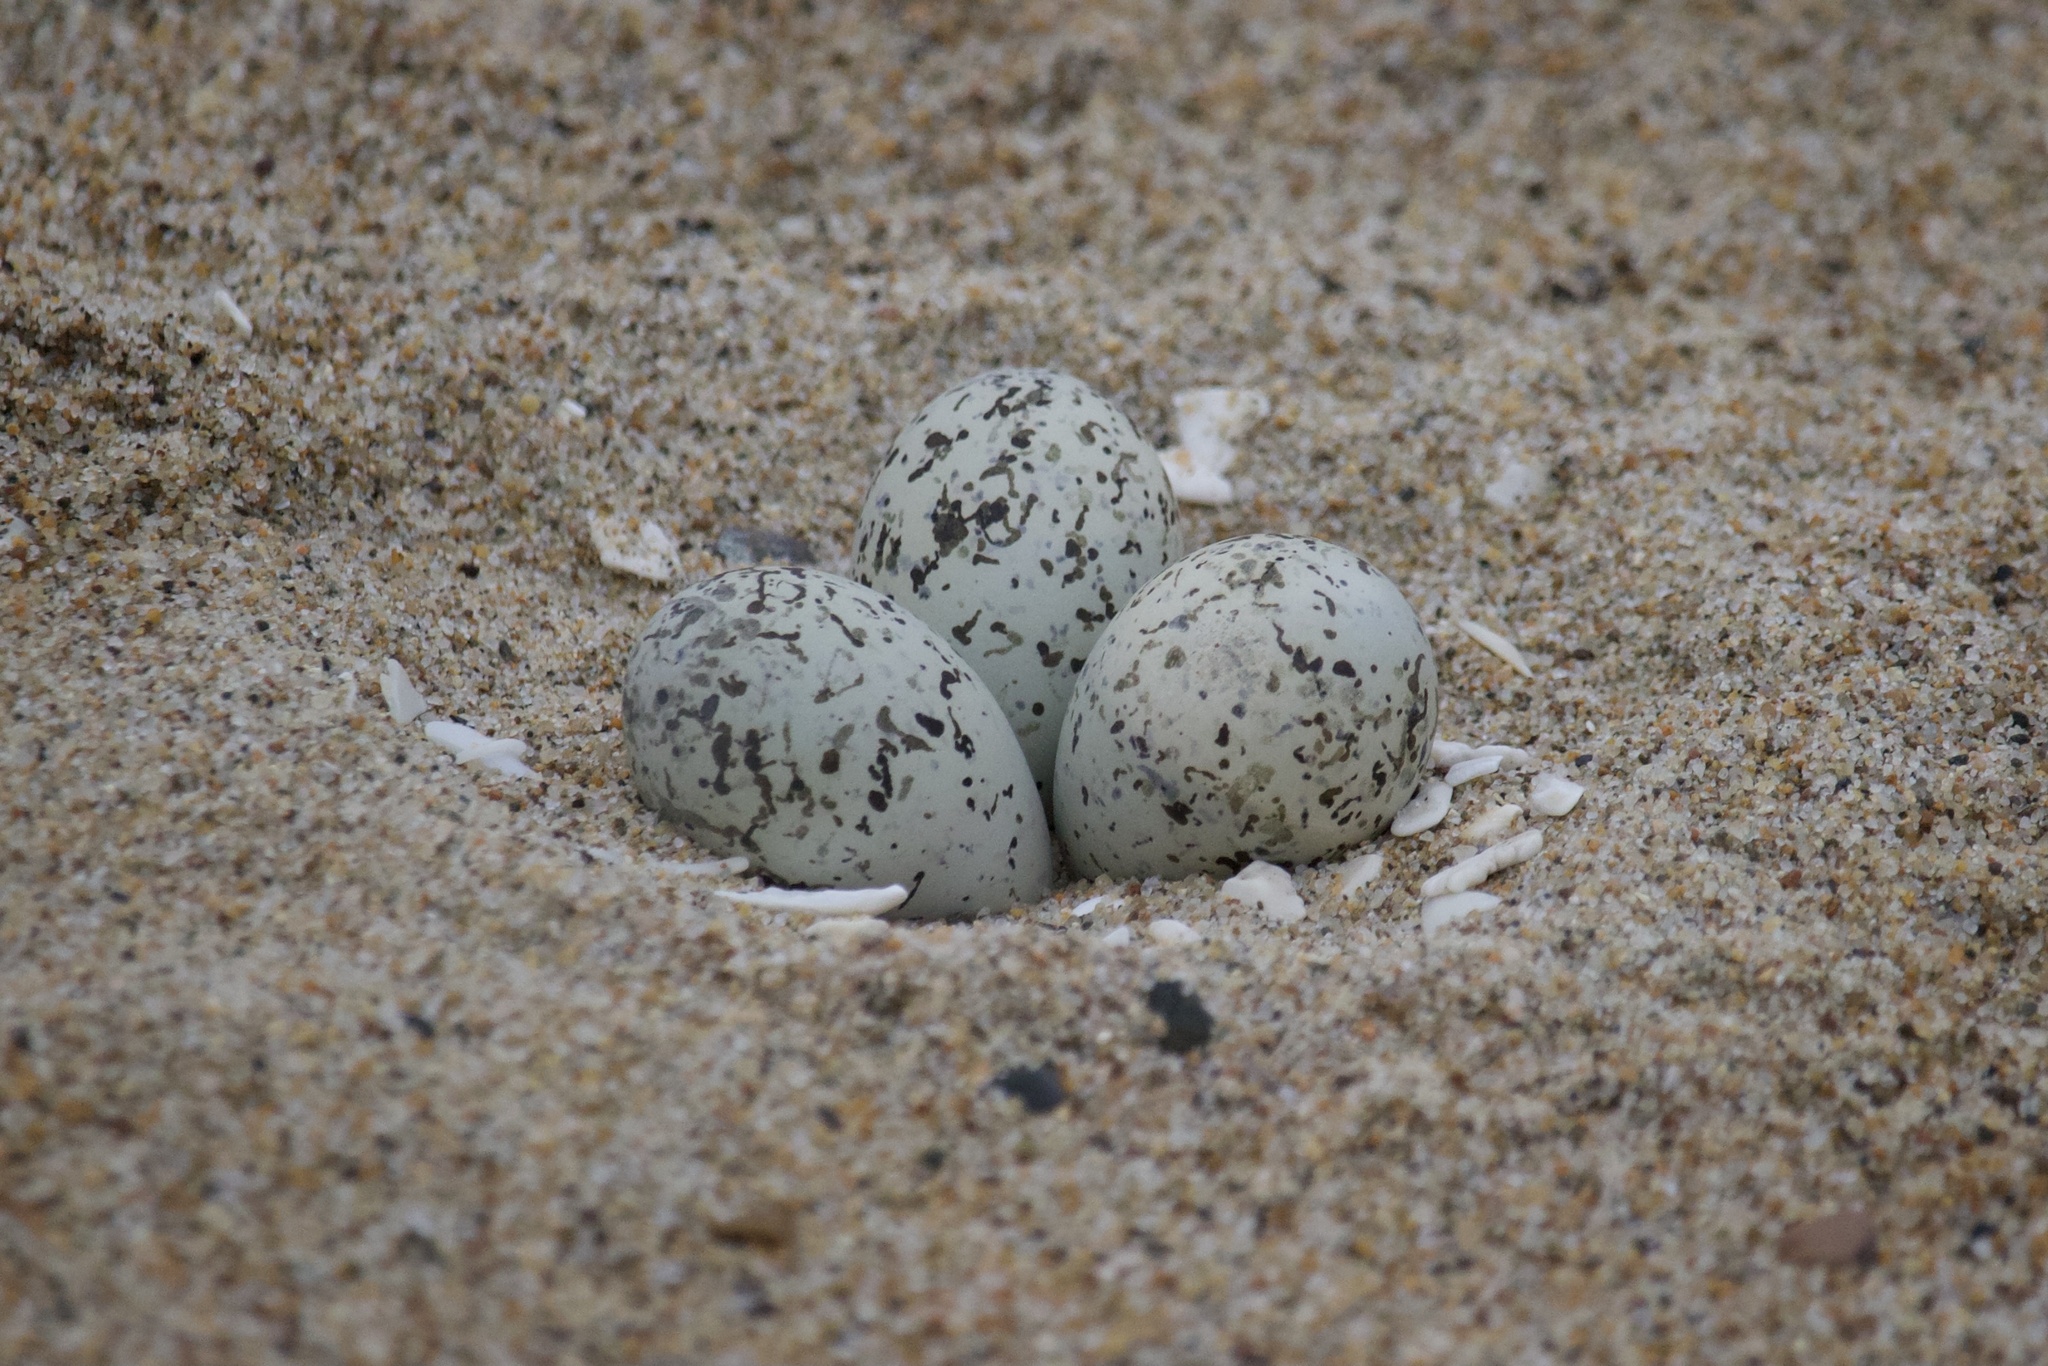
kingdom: Animalia
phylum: Chordata
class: Aves
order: Charadriiformes
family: Charadriidae
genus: Anarhynchus
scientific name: Anarhynchus
